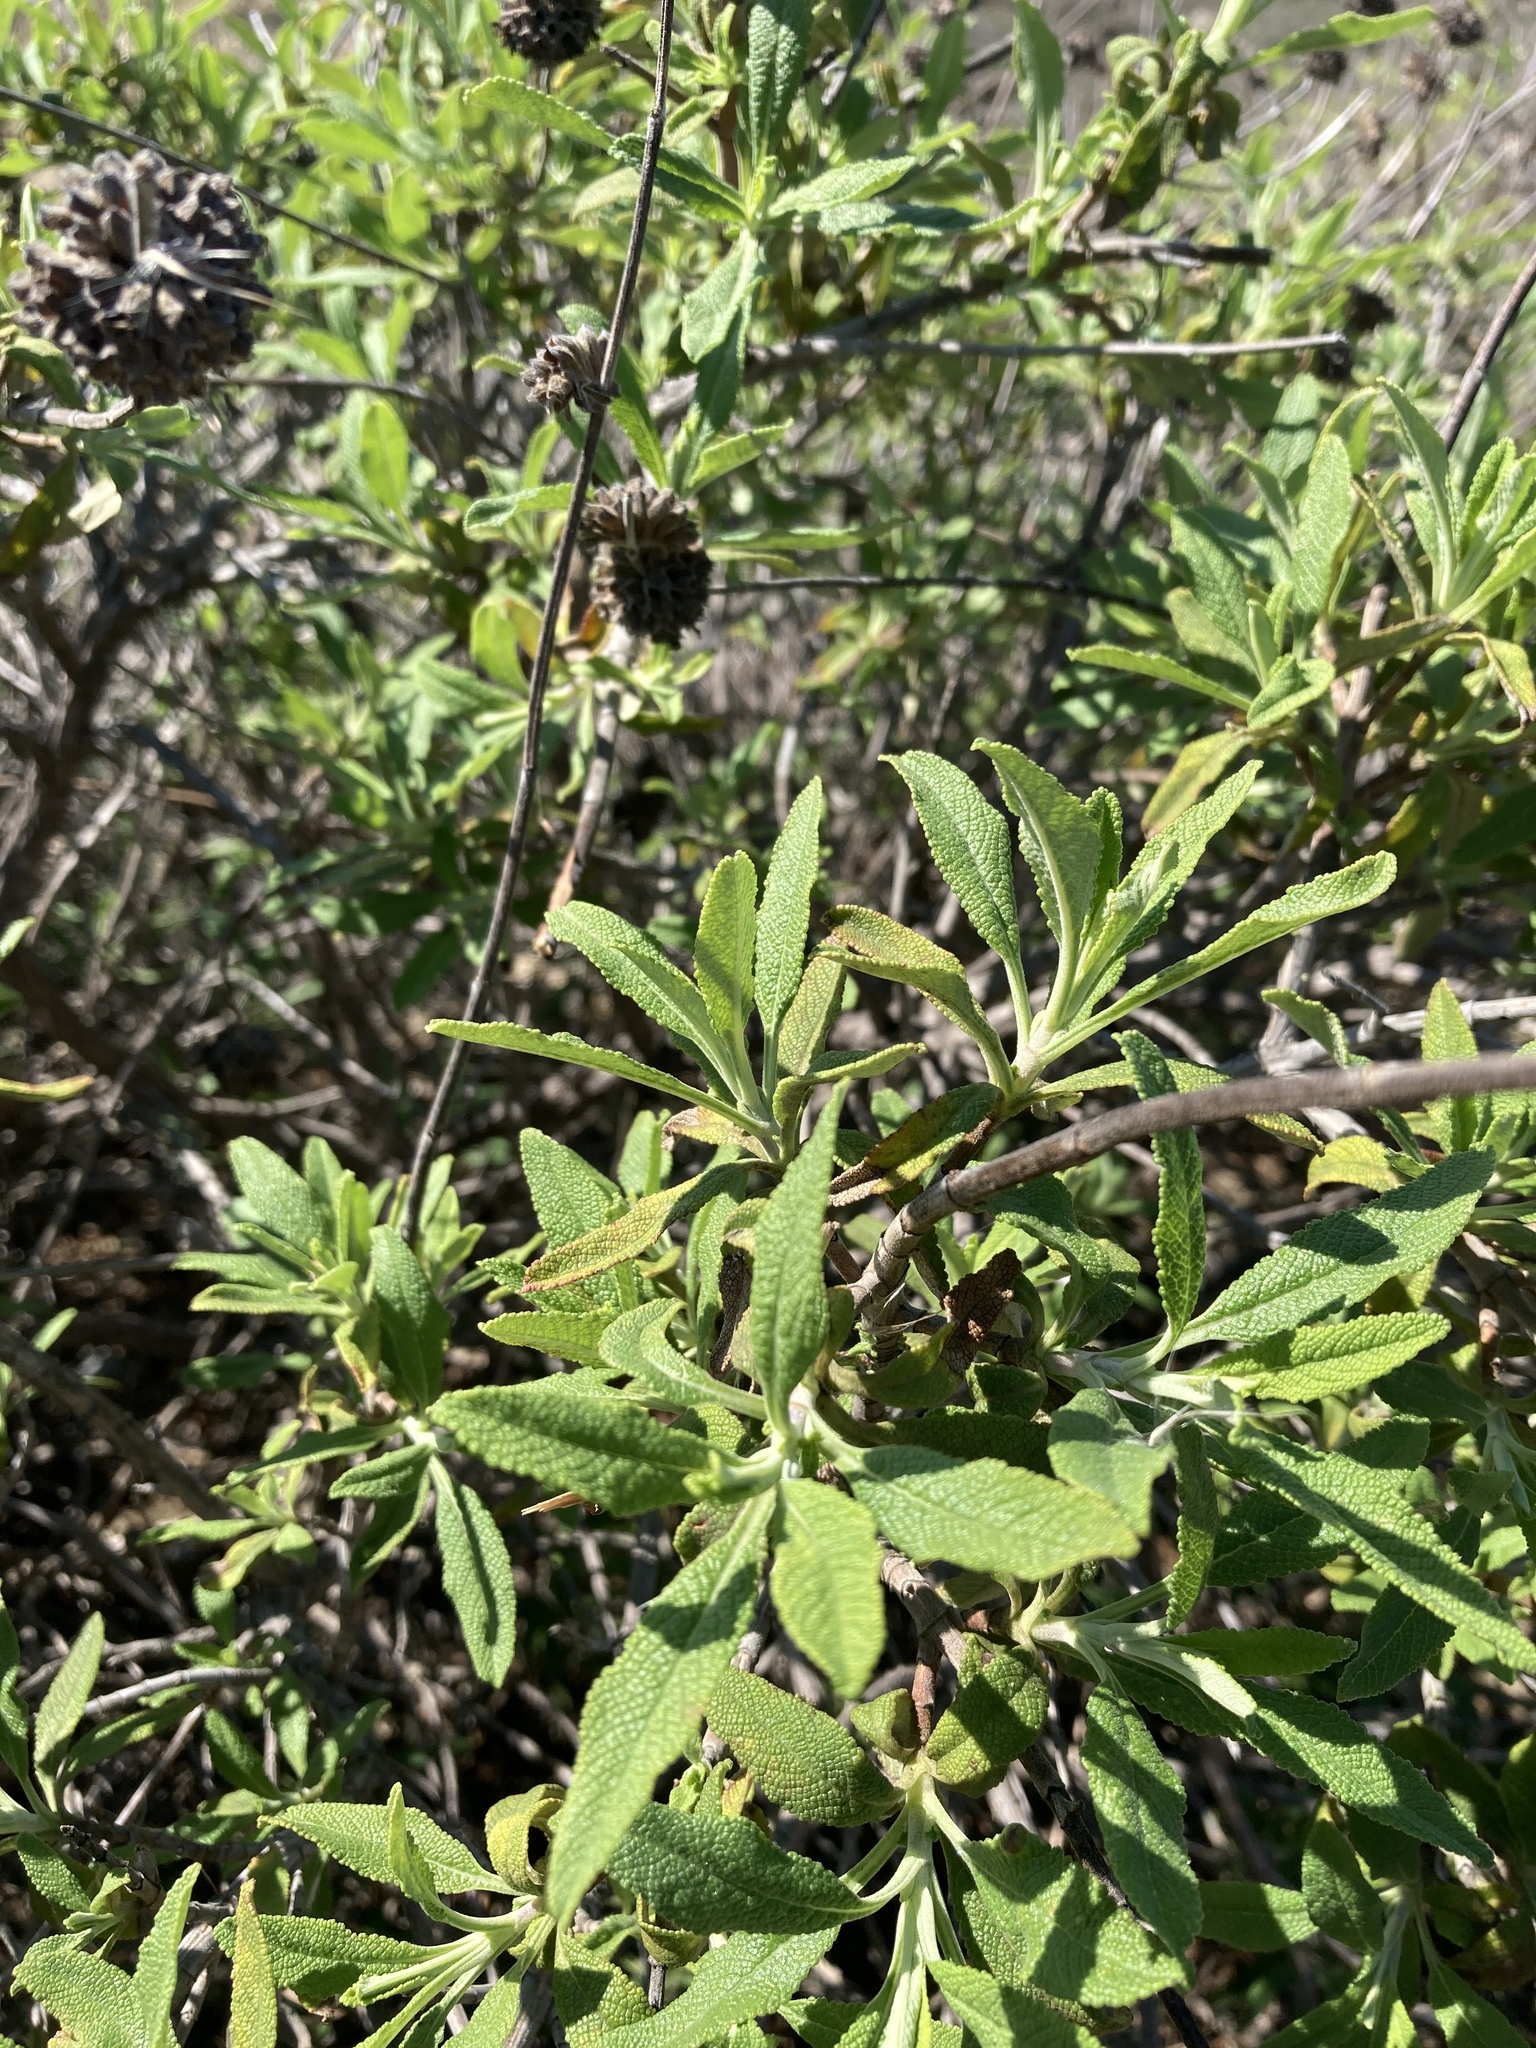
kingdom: Plantae
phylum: Tracheophyta
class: Magnoliopsida
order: Lamiales
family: Lamiaceae
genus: Salvia
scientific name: Salvia mellifera
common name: Black sage
